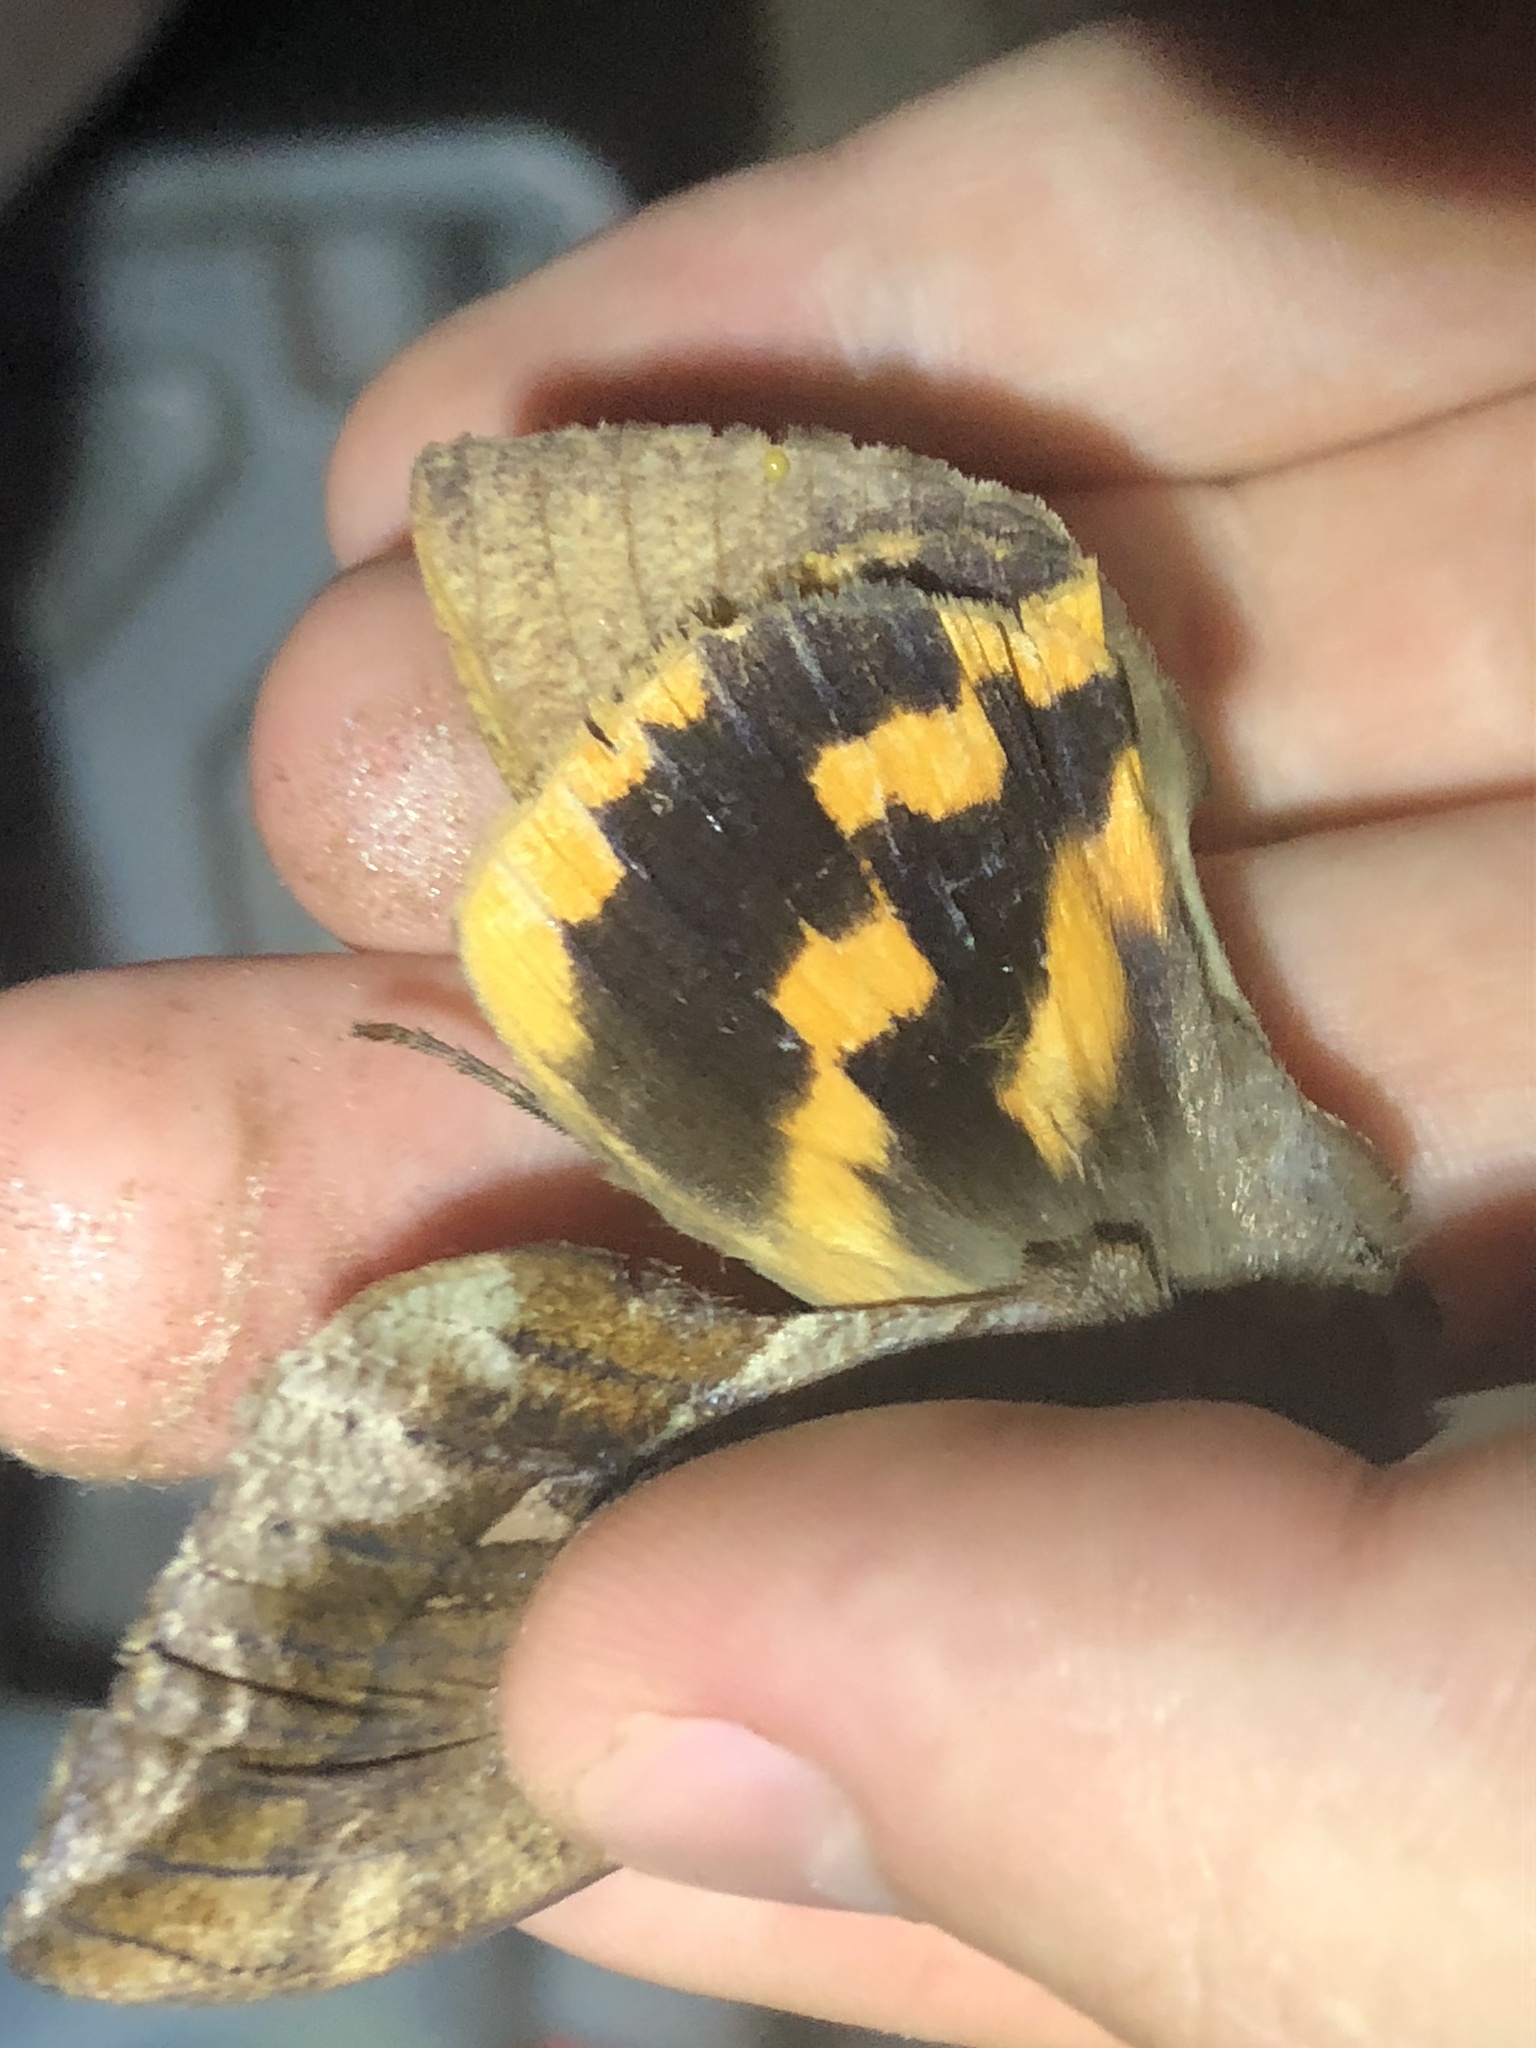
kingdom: Animalia
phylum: Arthropoda
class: Insecta
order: Lepidoptera
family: Erebidae
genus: Eudocima
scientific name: Eudocima procus
